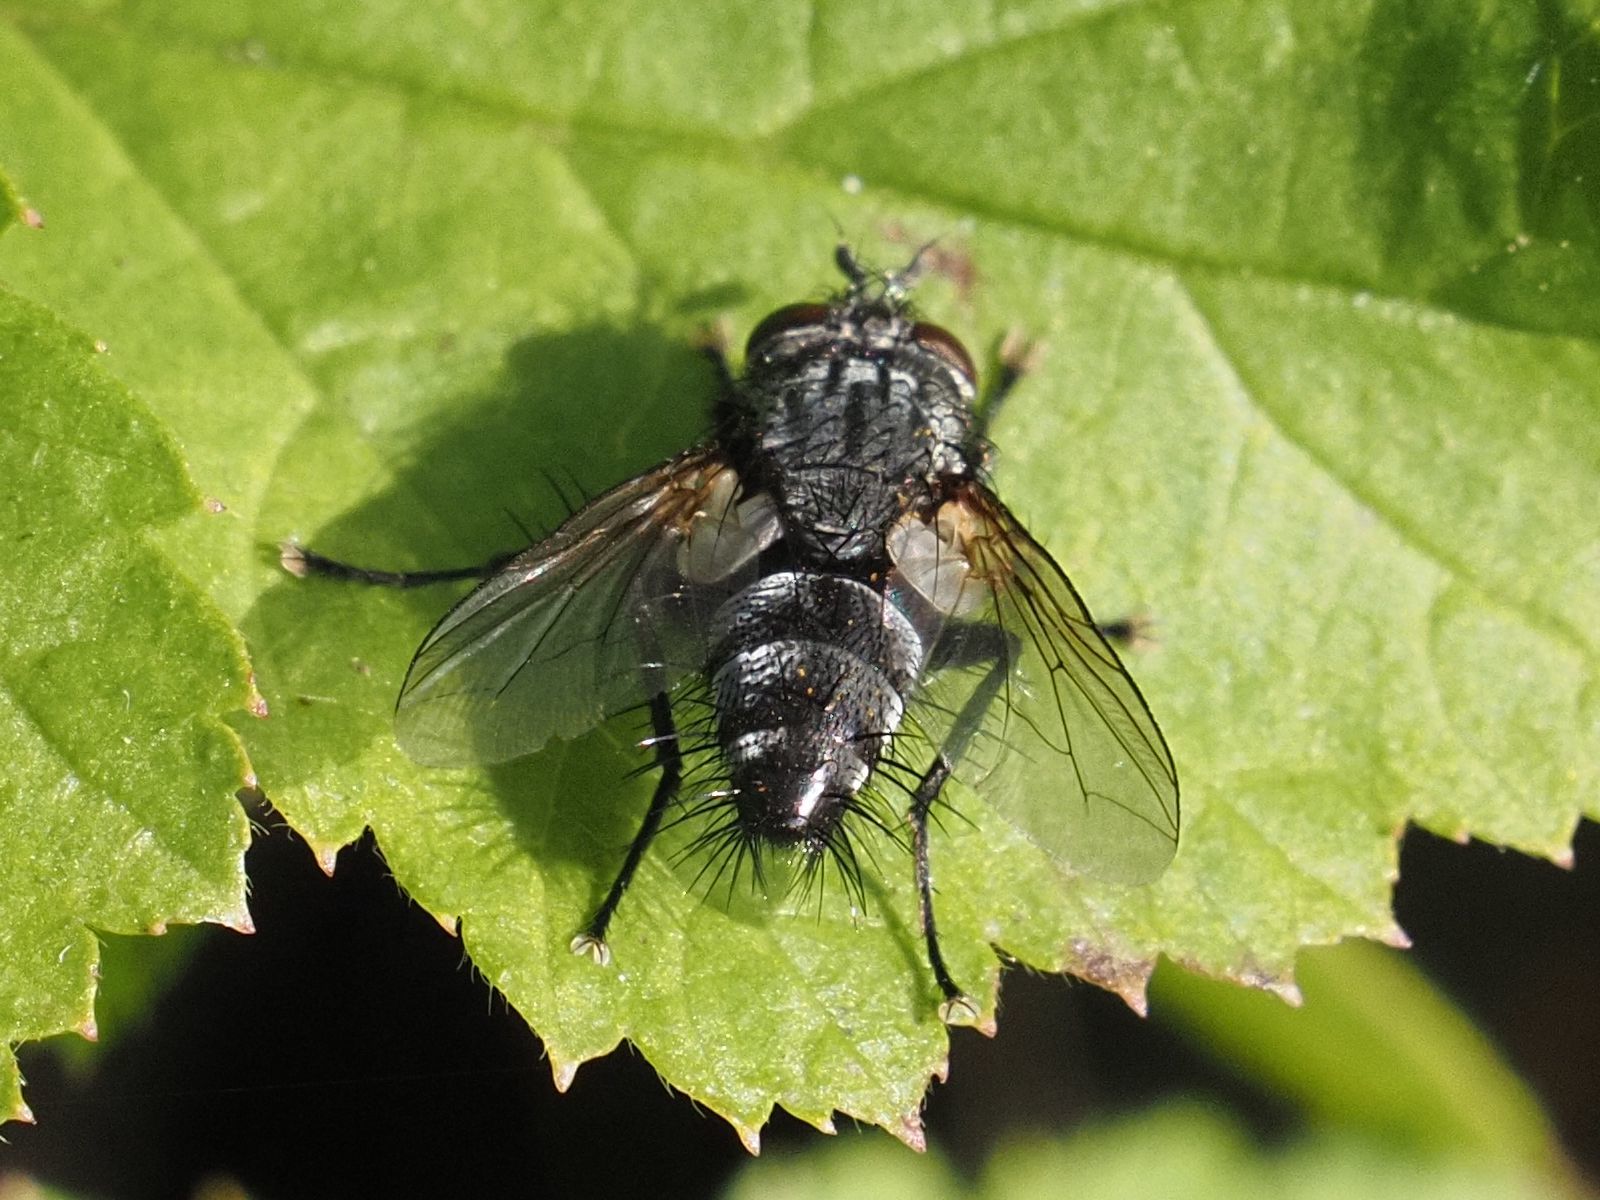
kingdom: Animalia
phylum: Arthropoda
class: Insecta
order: Diptera
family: Tachinidae
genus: Voria
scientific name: Voria ruralis
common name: Parasitic fly
